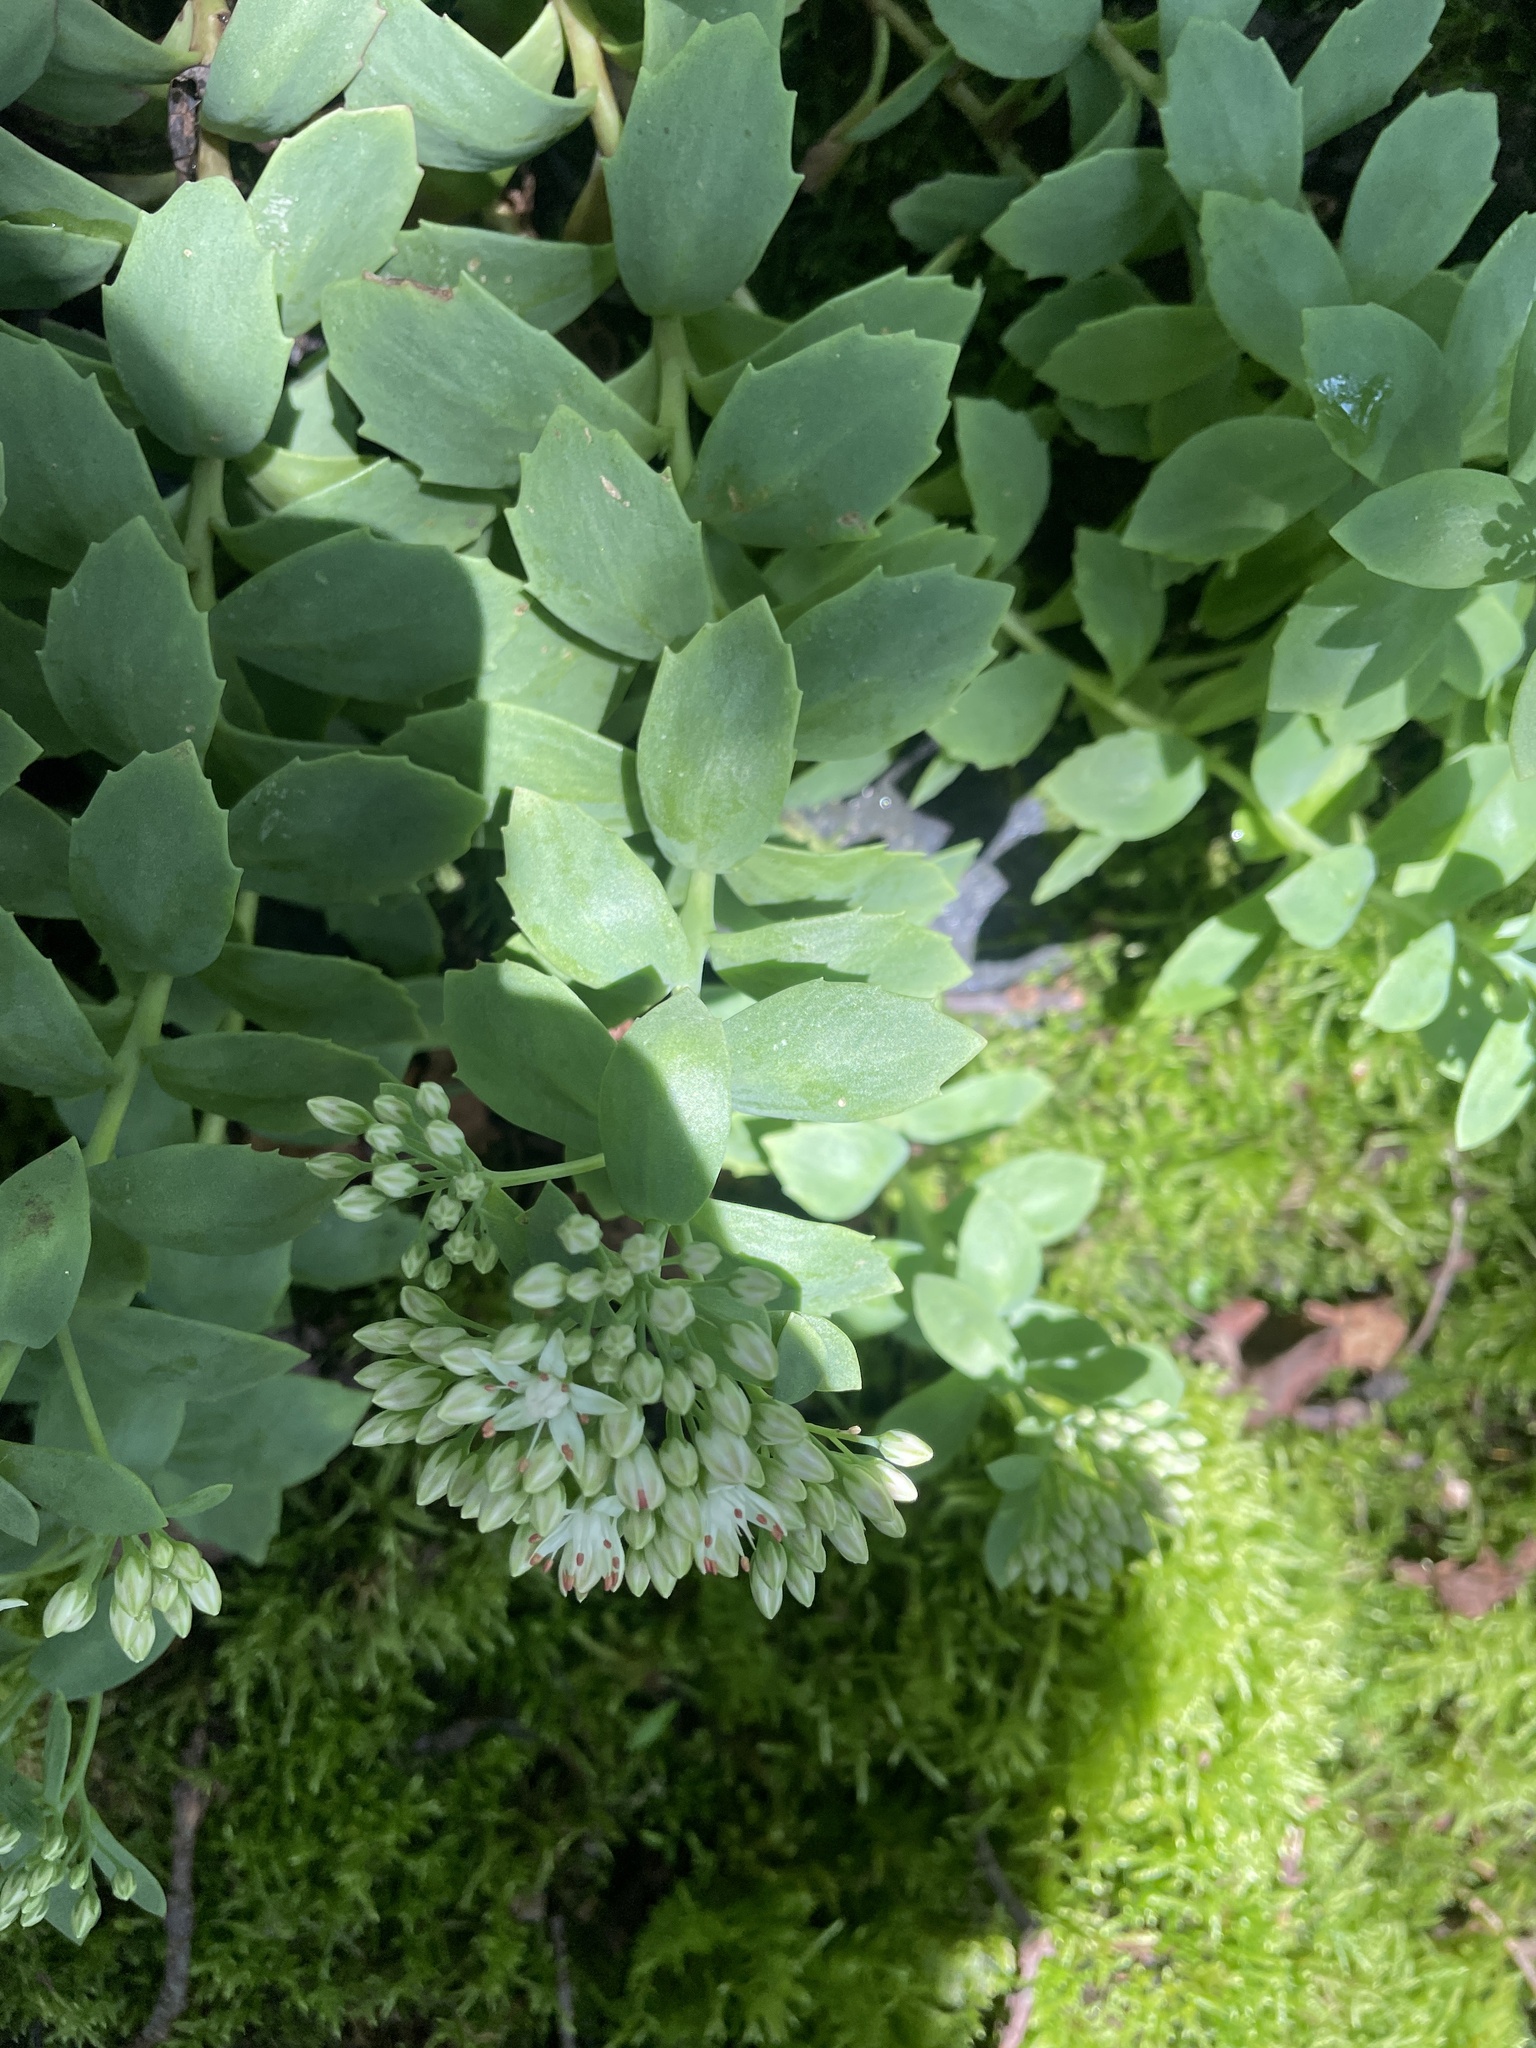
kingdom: Plantae
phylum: Tracheophyta
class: Magnoliopsida
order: Saxifragales
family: Crassulaceae
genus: Hylotelephium
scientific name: Hylotelephium telephioides
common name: Allegheny stonecrop
